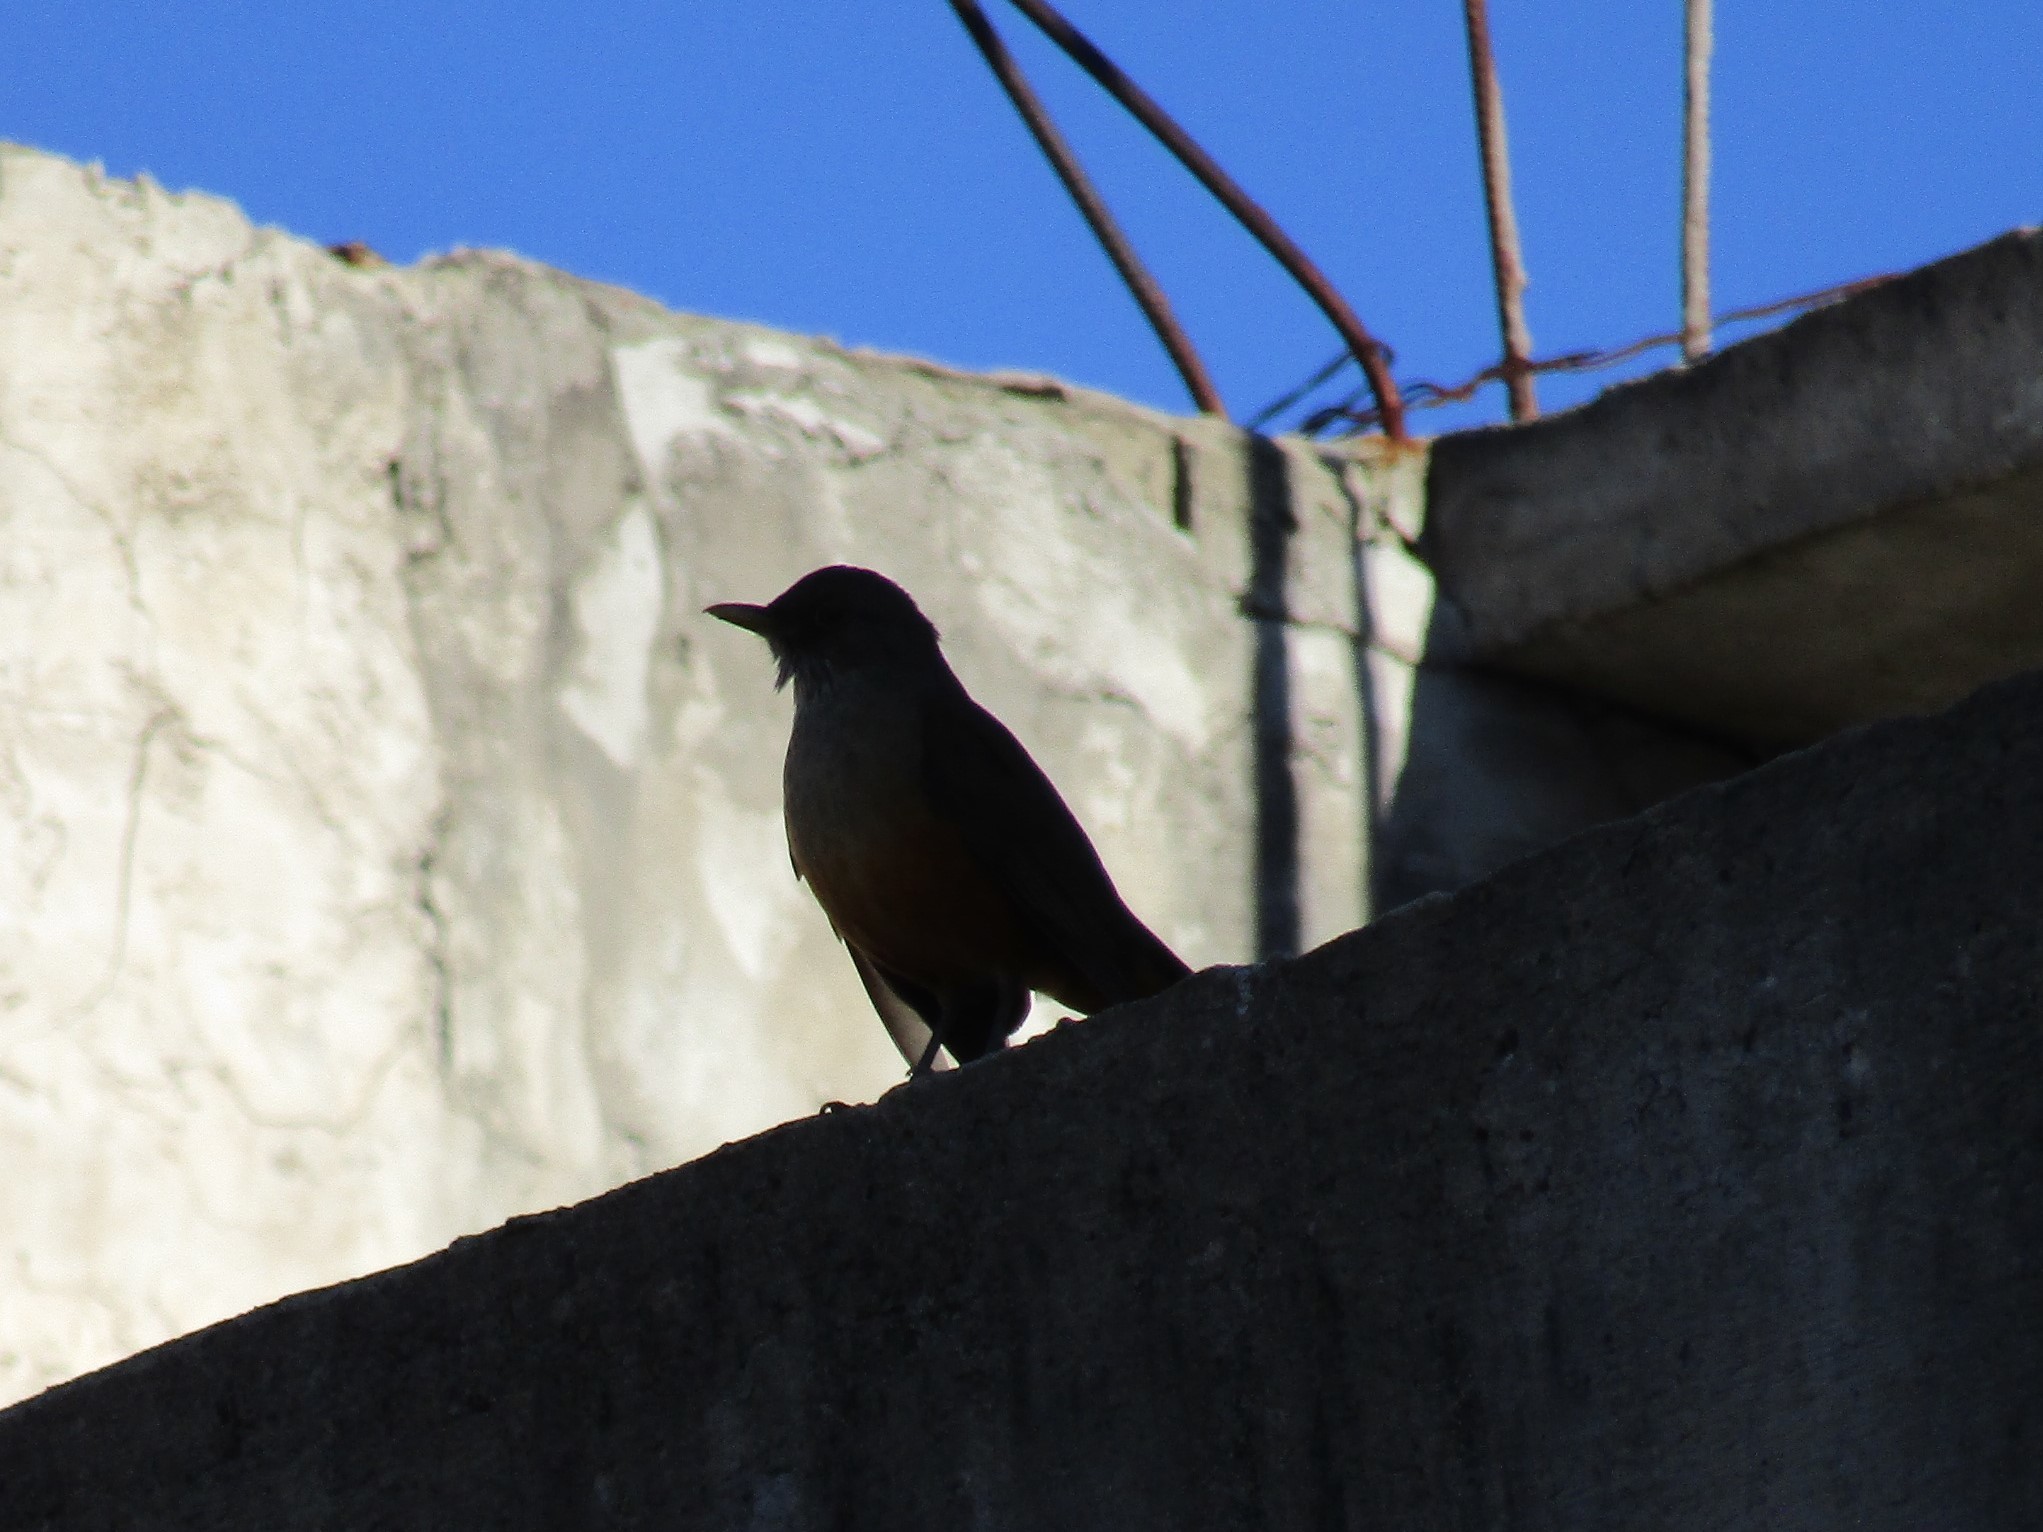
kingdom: Animalia
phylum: Chordata
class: Aves
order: Passeriformes
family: Turdidae
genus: Turdus
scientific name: Turdus rufiventris
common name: Rufous-bellied thrush
